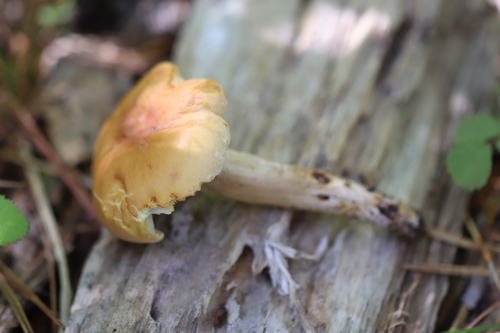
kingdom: Fungi
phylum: Basidiomycota
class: Agaricomycetes
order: Agaricales
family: Strophariaceae
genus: Hypholoma
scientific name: Hypholoma capnoides
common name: Conifer tuft
